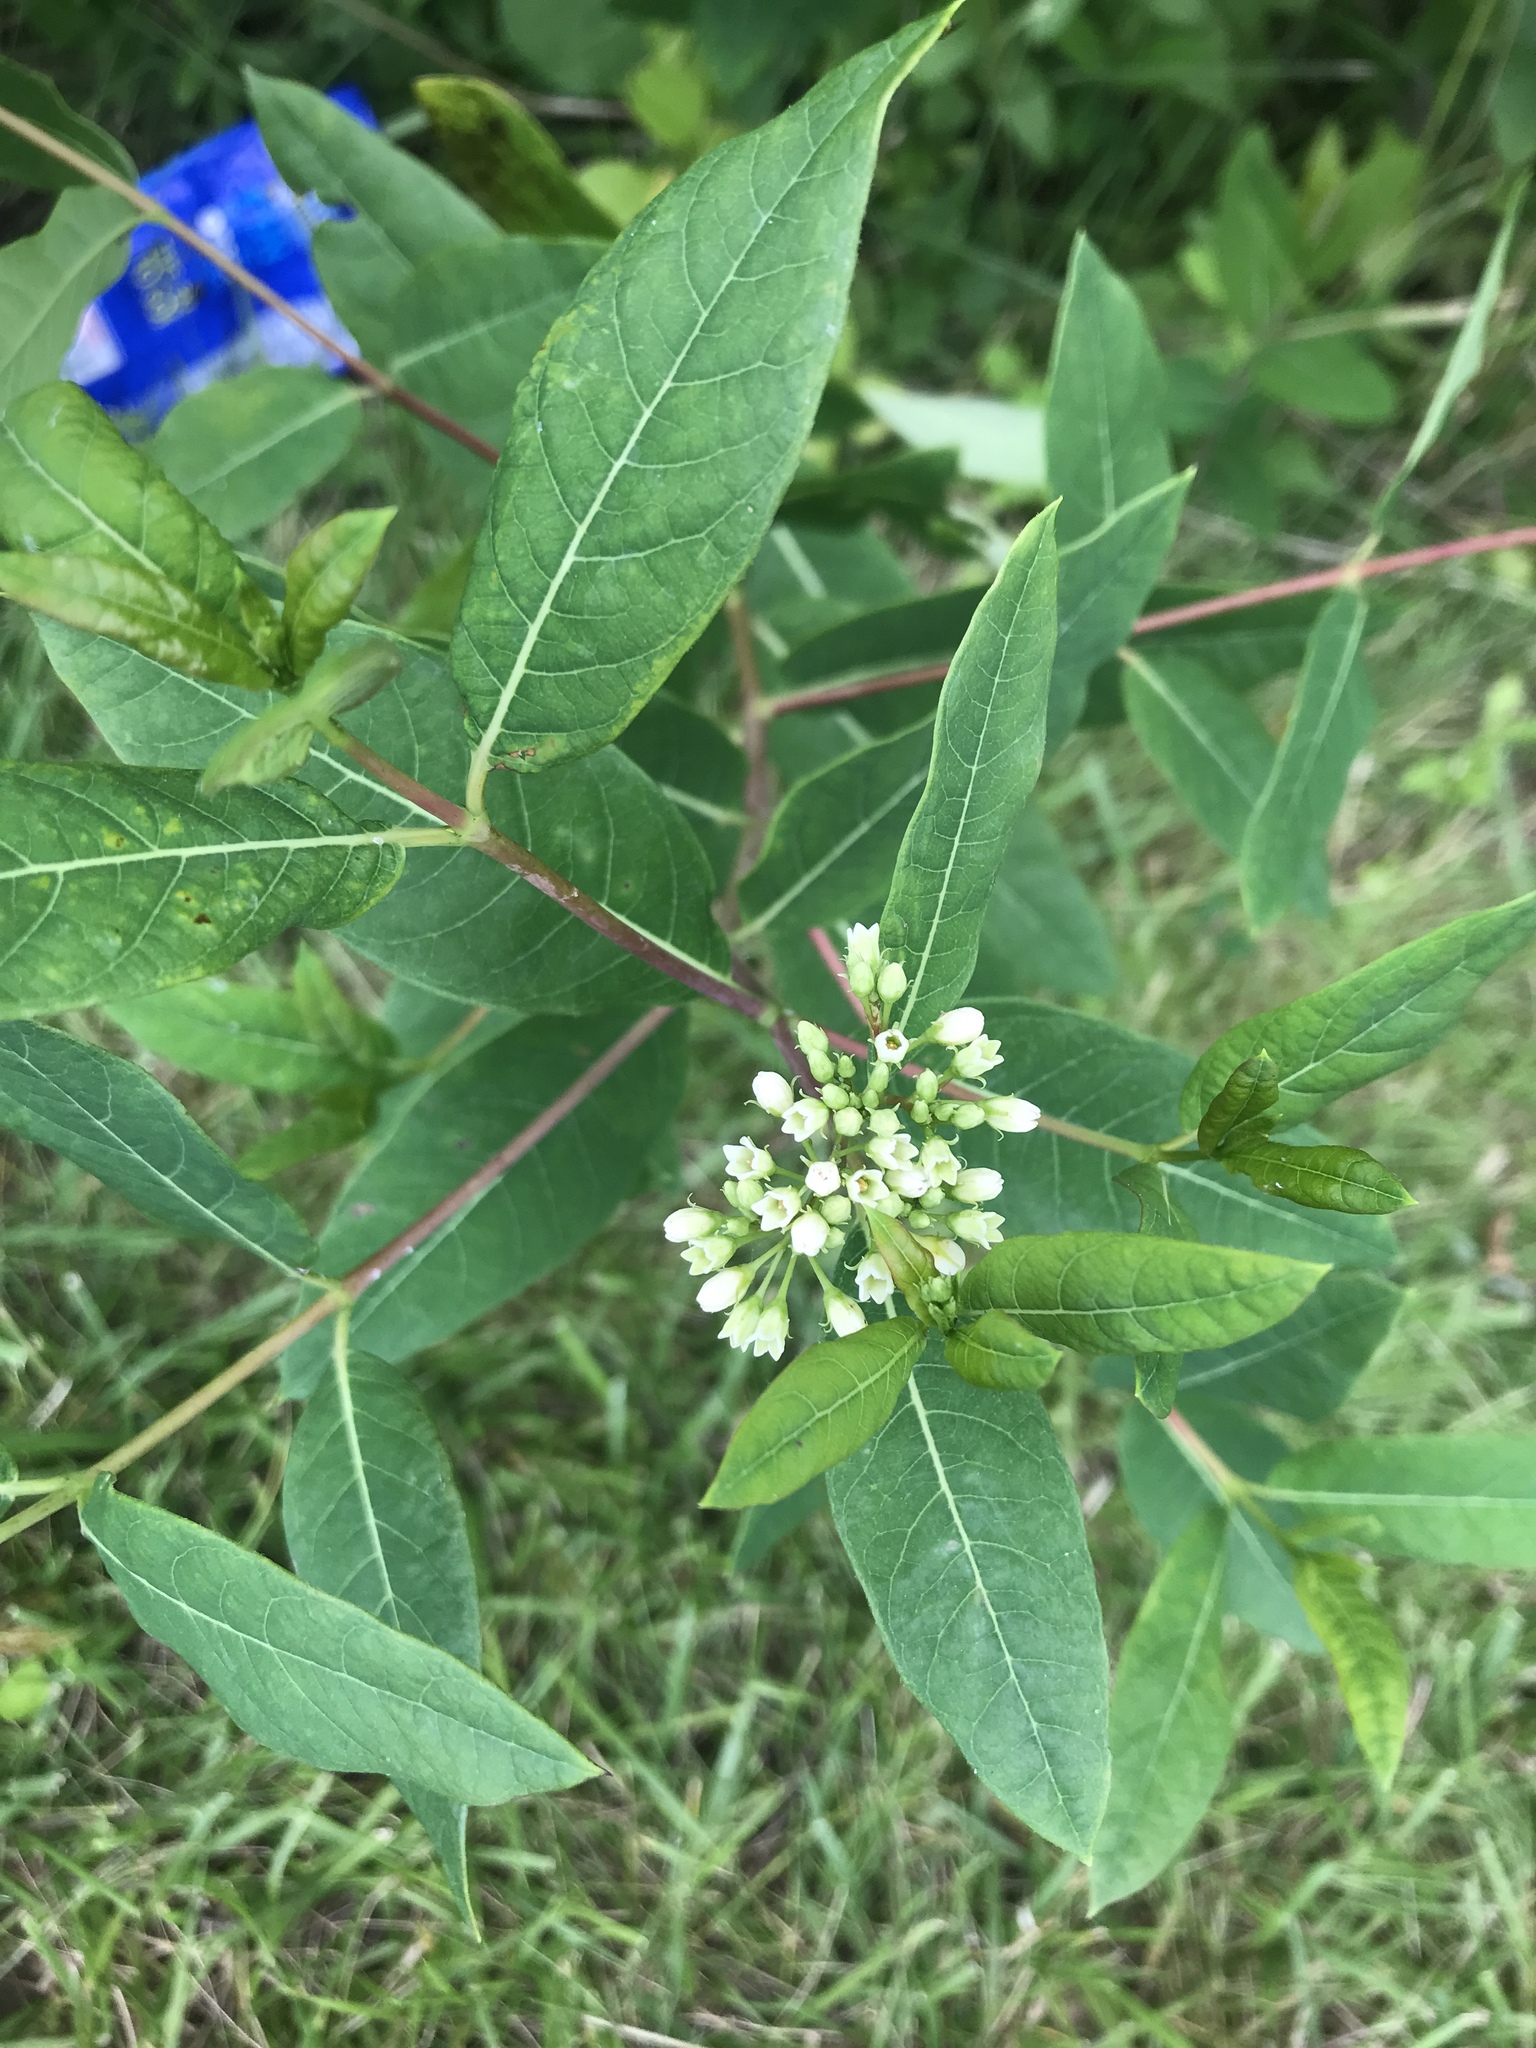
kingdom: Plantae
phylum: Tracheophyta
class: Magnoliopsida
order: Gentianales
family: Apocynaceae
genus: Apocynum
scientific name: Apocynum cannabinum
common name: Hemp dogbane
